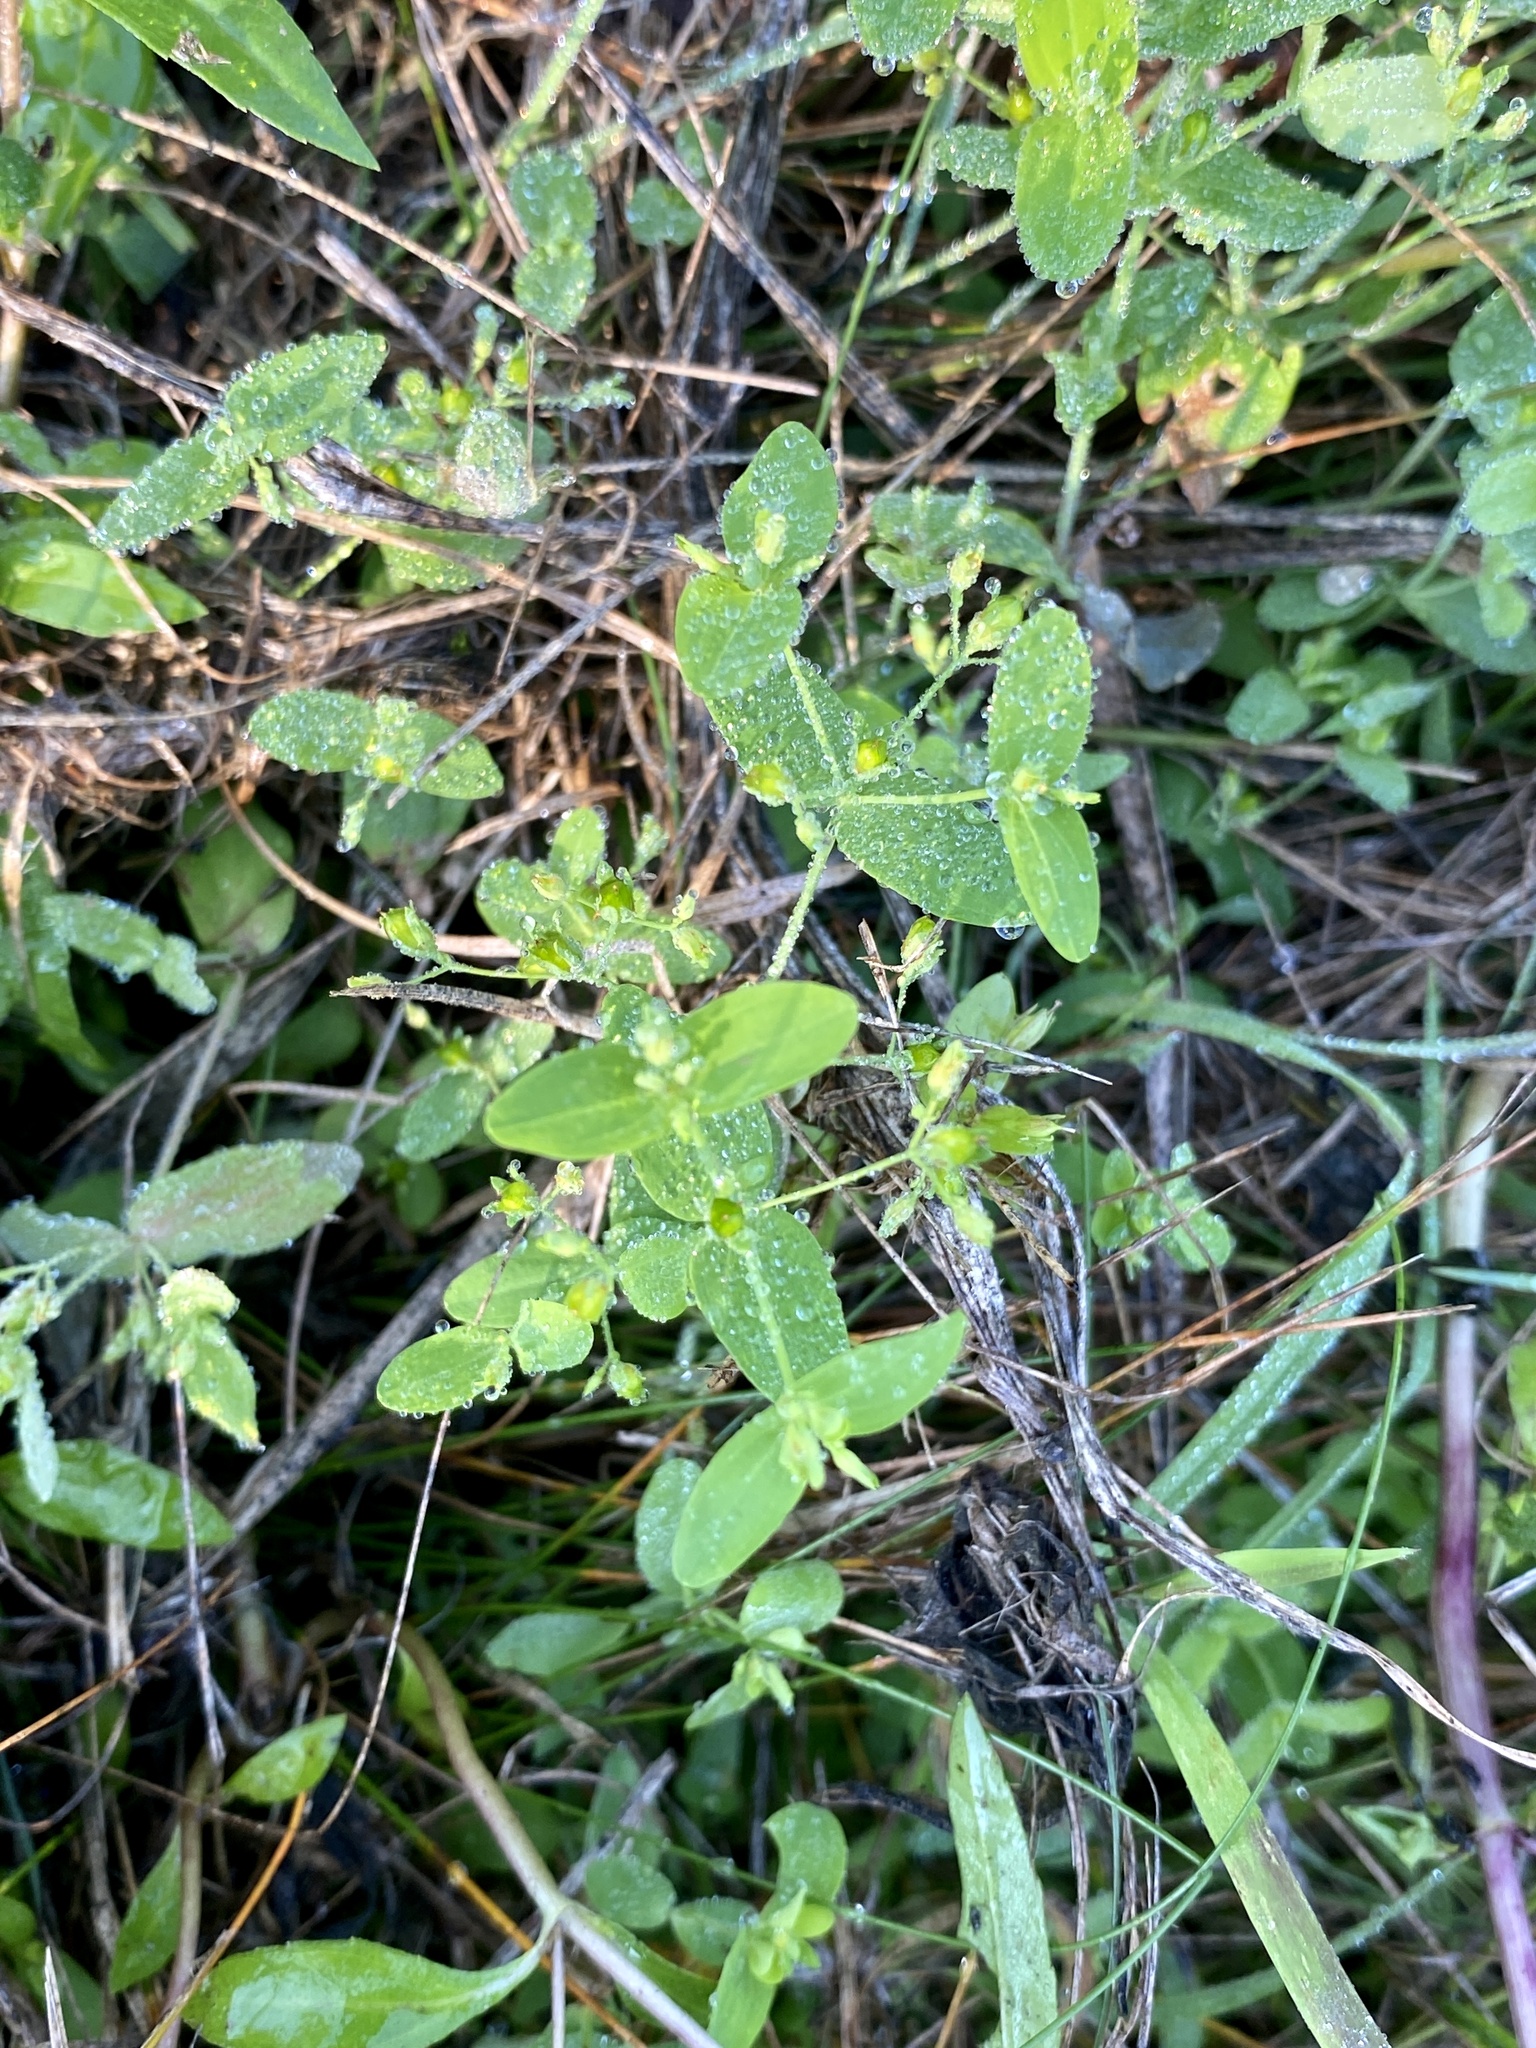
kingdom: Plantae
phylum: Tracheophyta
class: Magnoliopsida
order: Malpighiales
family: Hypericaceae
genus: Hypericum
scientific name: Hypericum mutilum
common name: Dwarf st. john's-wort
